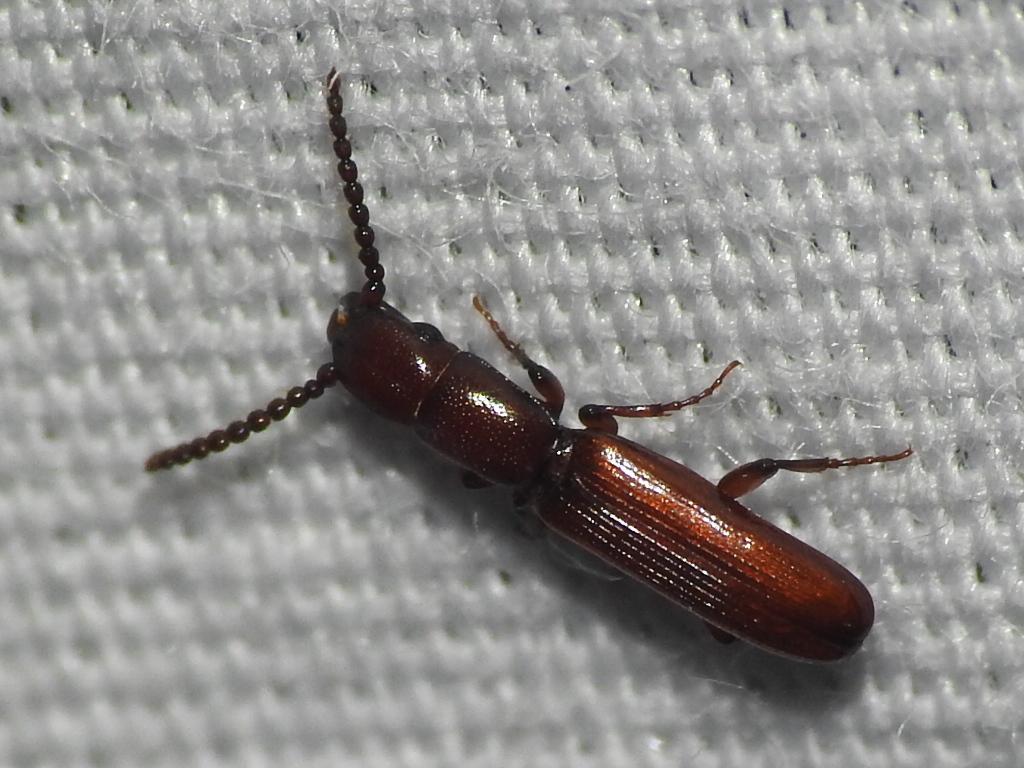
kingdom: Animalia
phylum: Arthropoda
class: Insecta
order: Coleoptera
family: Passandridae
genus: Taphroscelidia
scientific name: Taphroscelidia linearis
